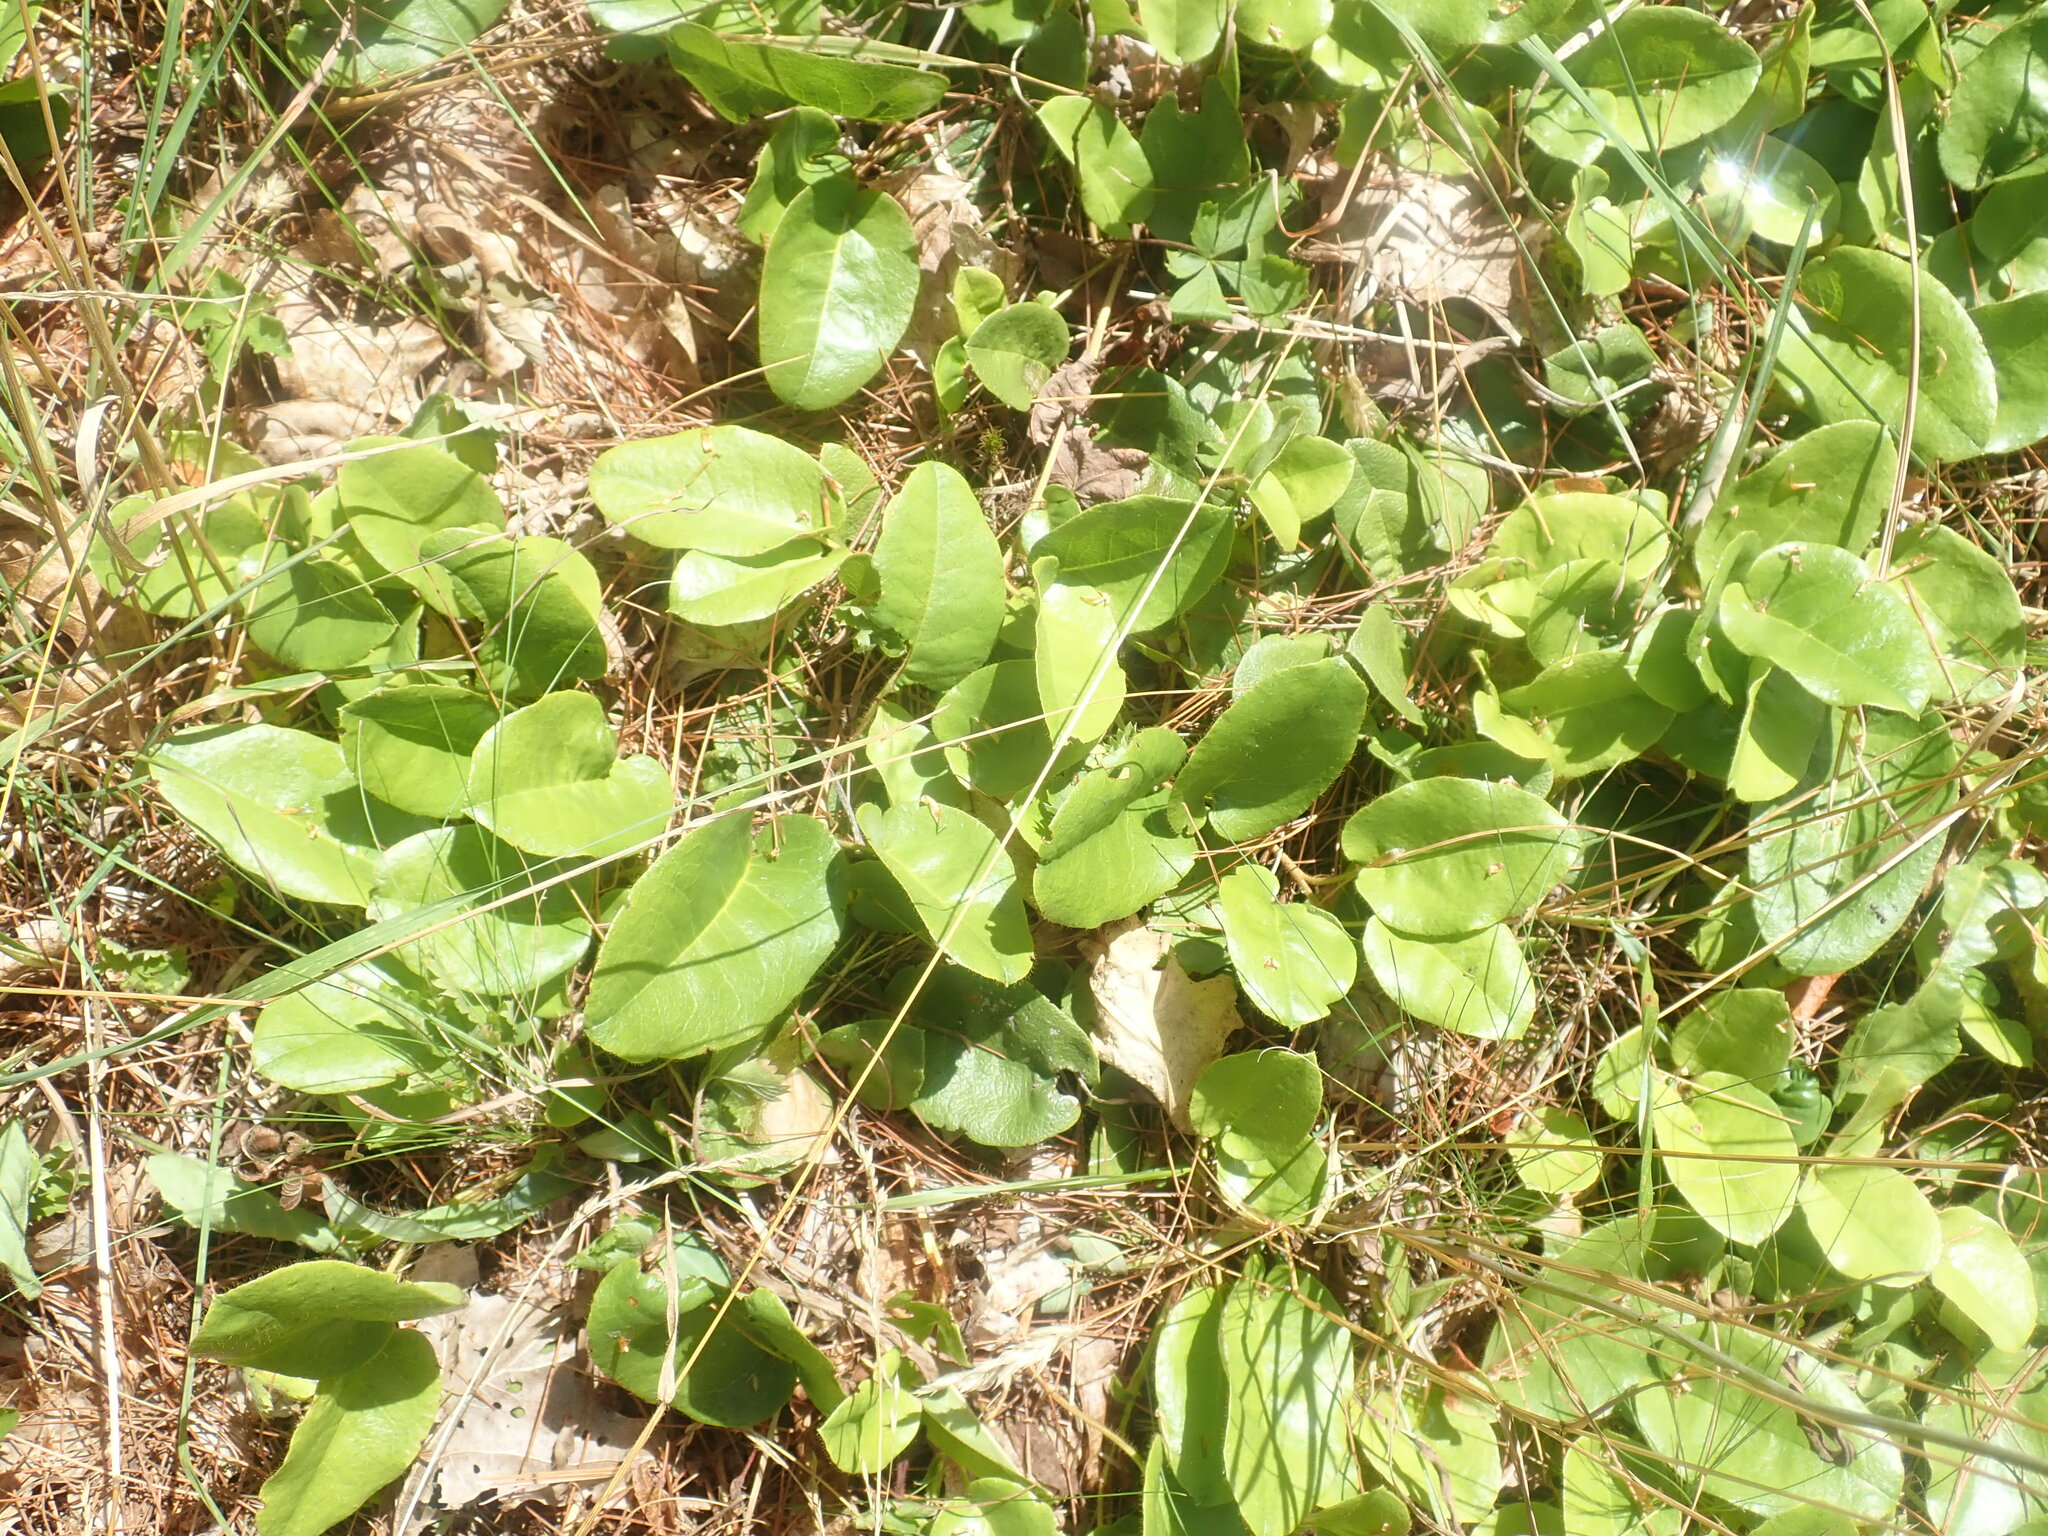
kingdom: Plantae
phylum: Tracheophyta
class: Magnoliopsida
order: Ericales
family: Ericaceae
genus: Epigaea
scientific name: Epigaea repens
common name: Gravelroot
